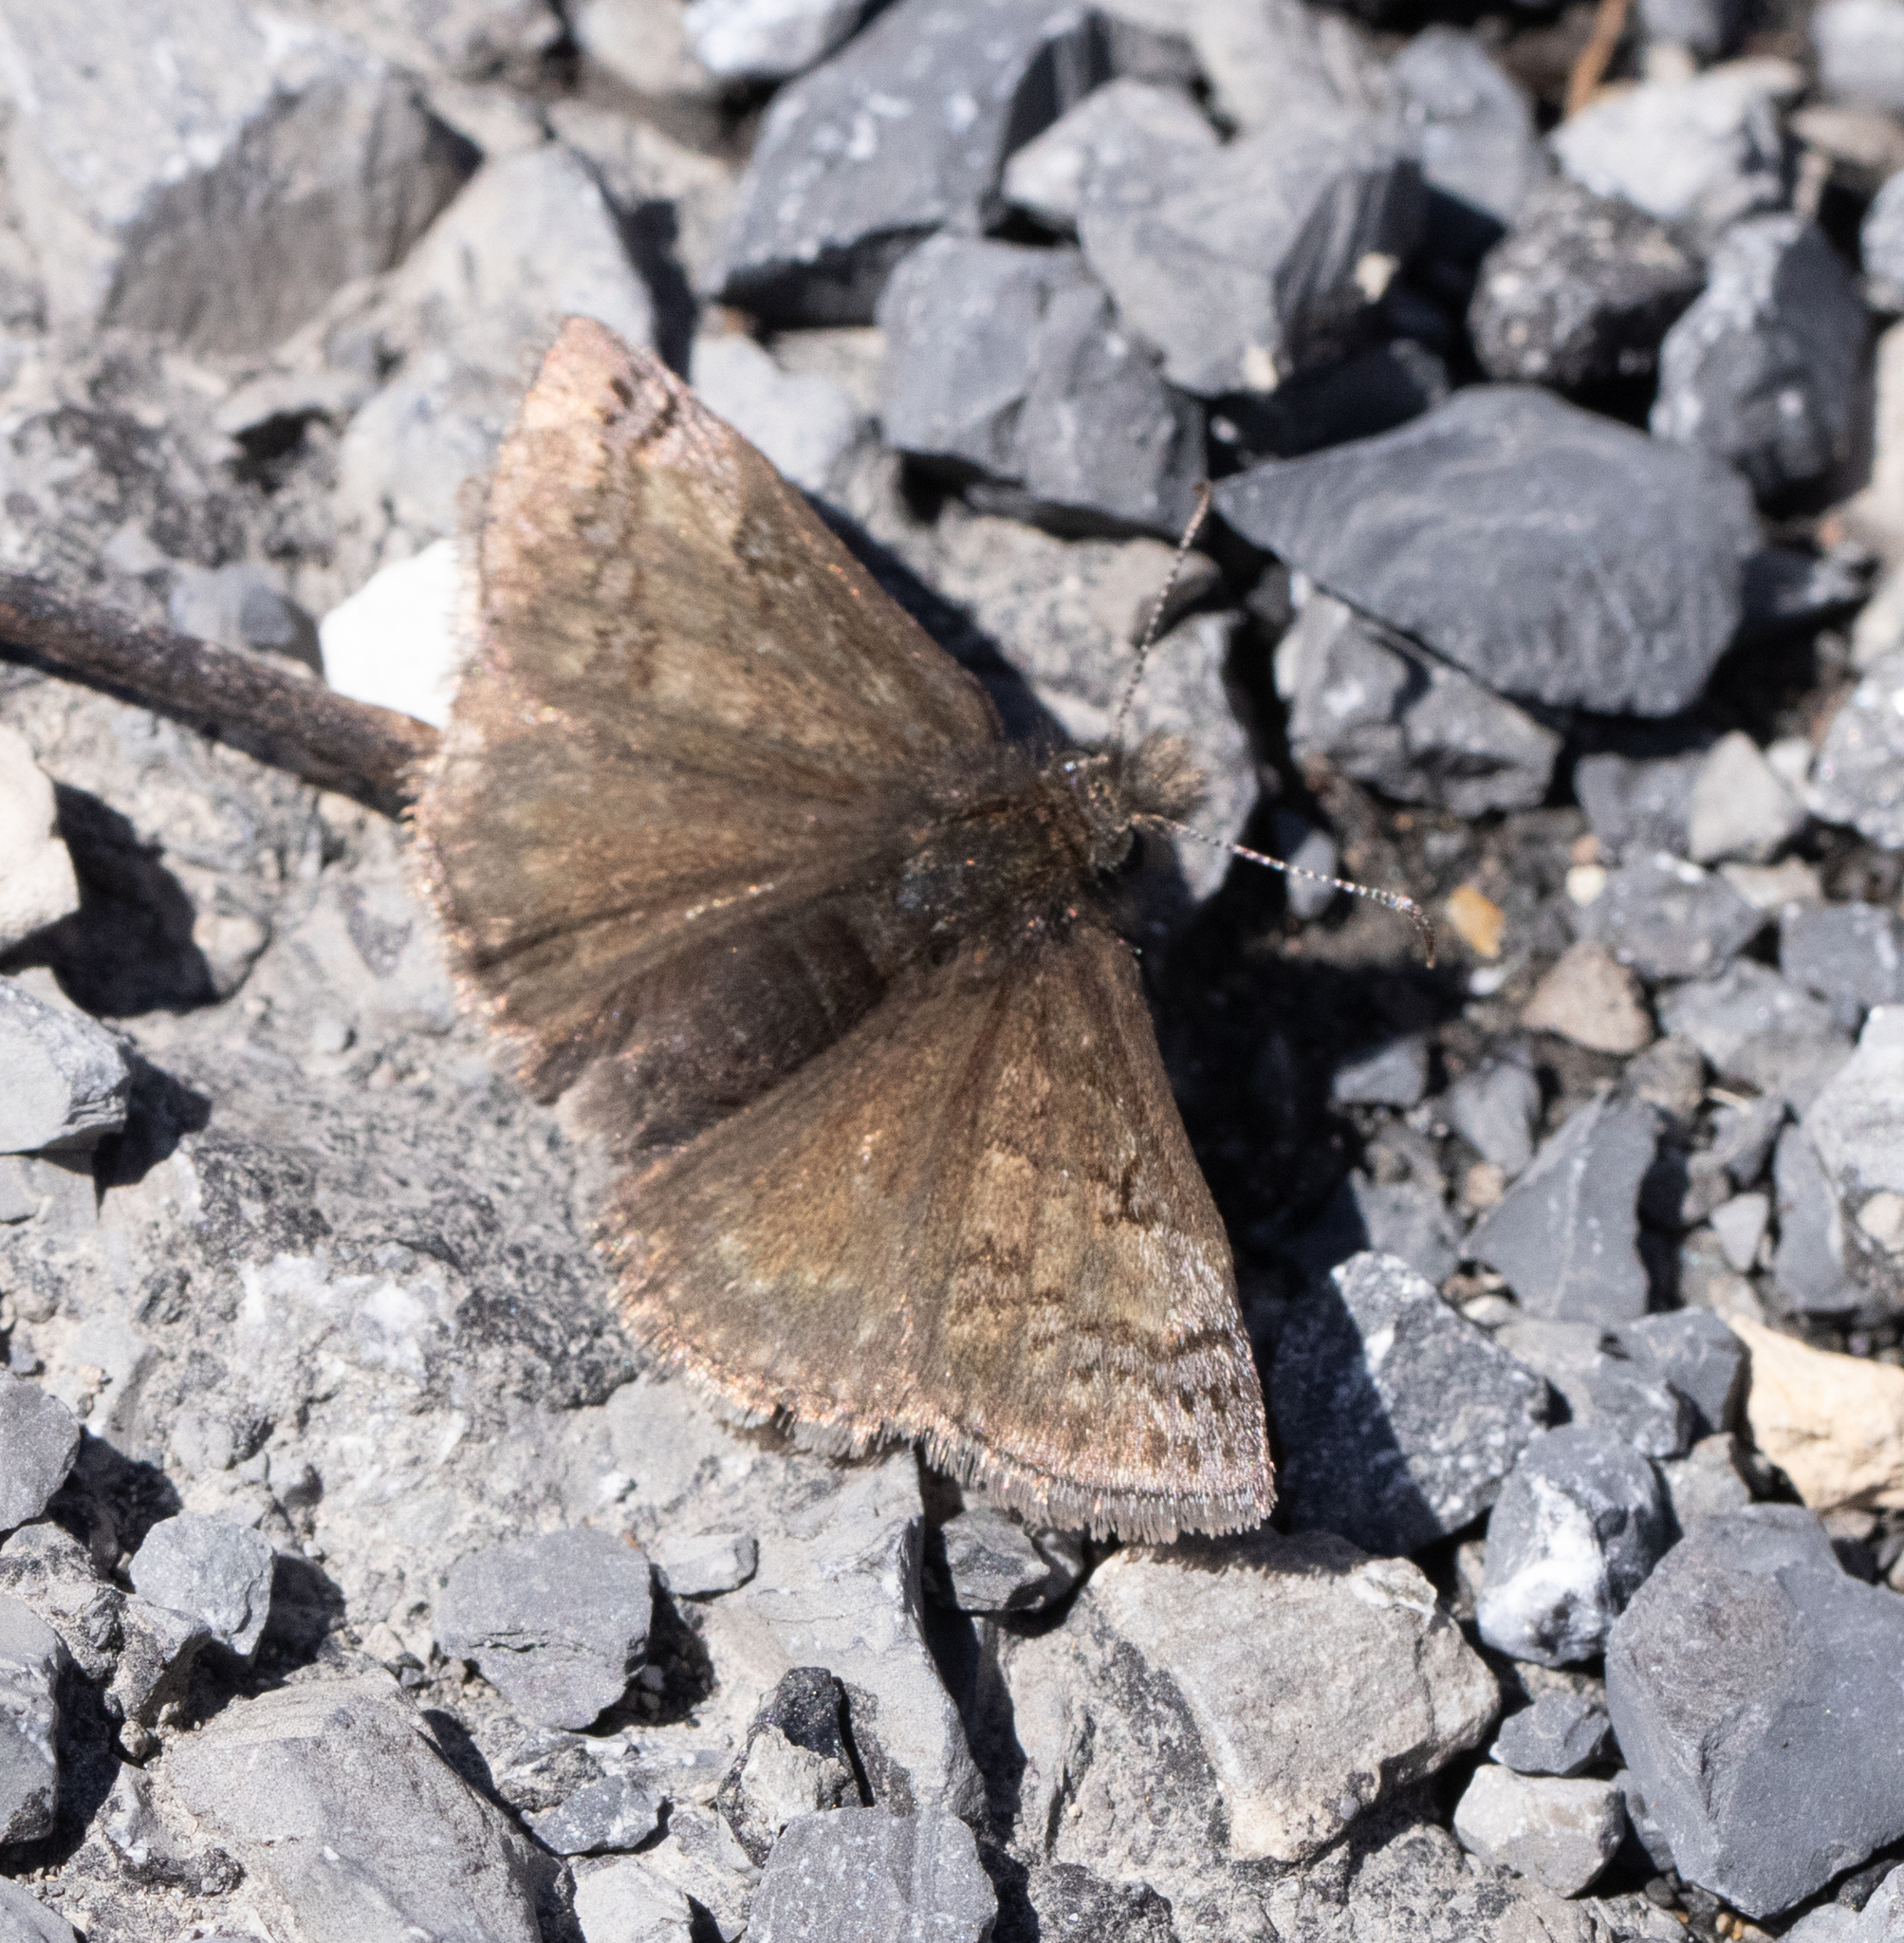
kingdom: Animalia
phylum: Arthropoda
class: Insecta
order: Lepidoptera
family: Hesperiidae
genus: Erynnis
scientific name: Erynnis brizo
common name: Sleepy duskywing
